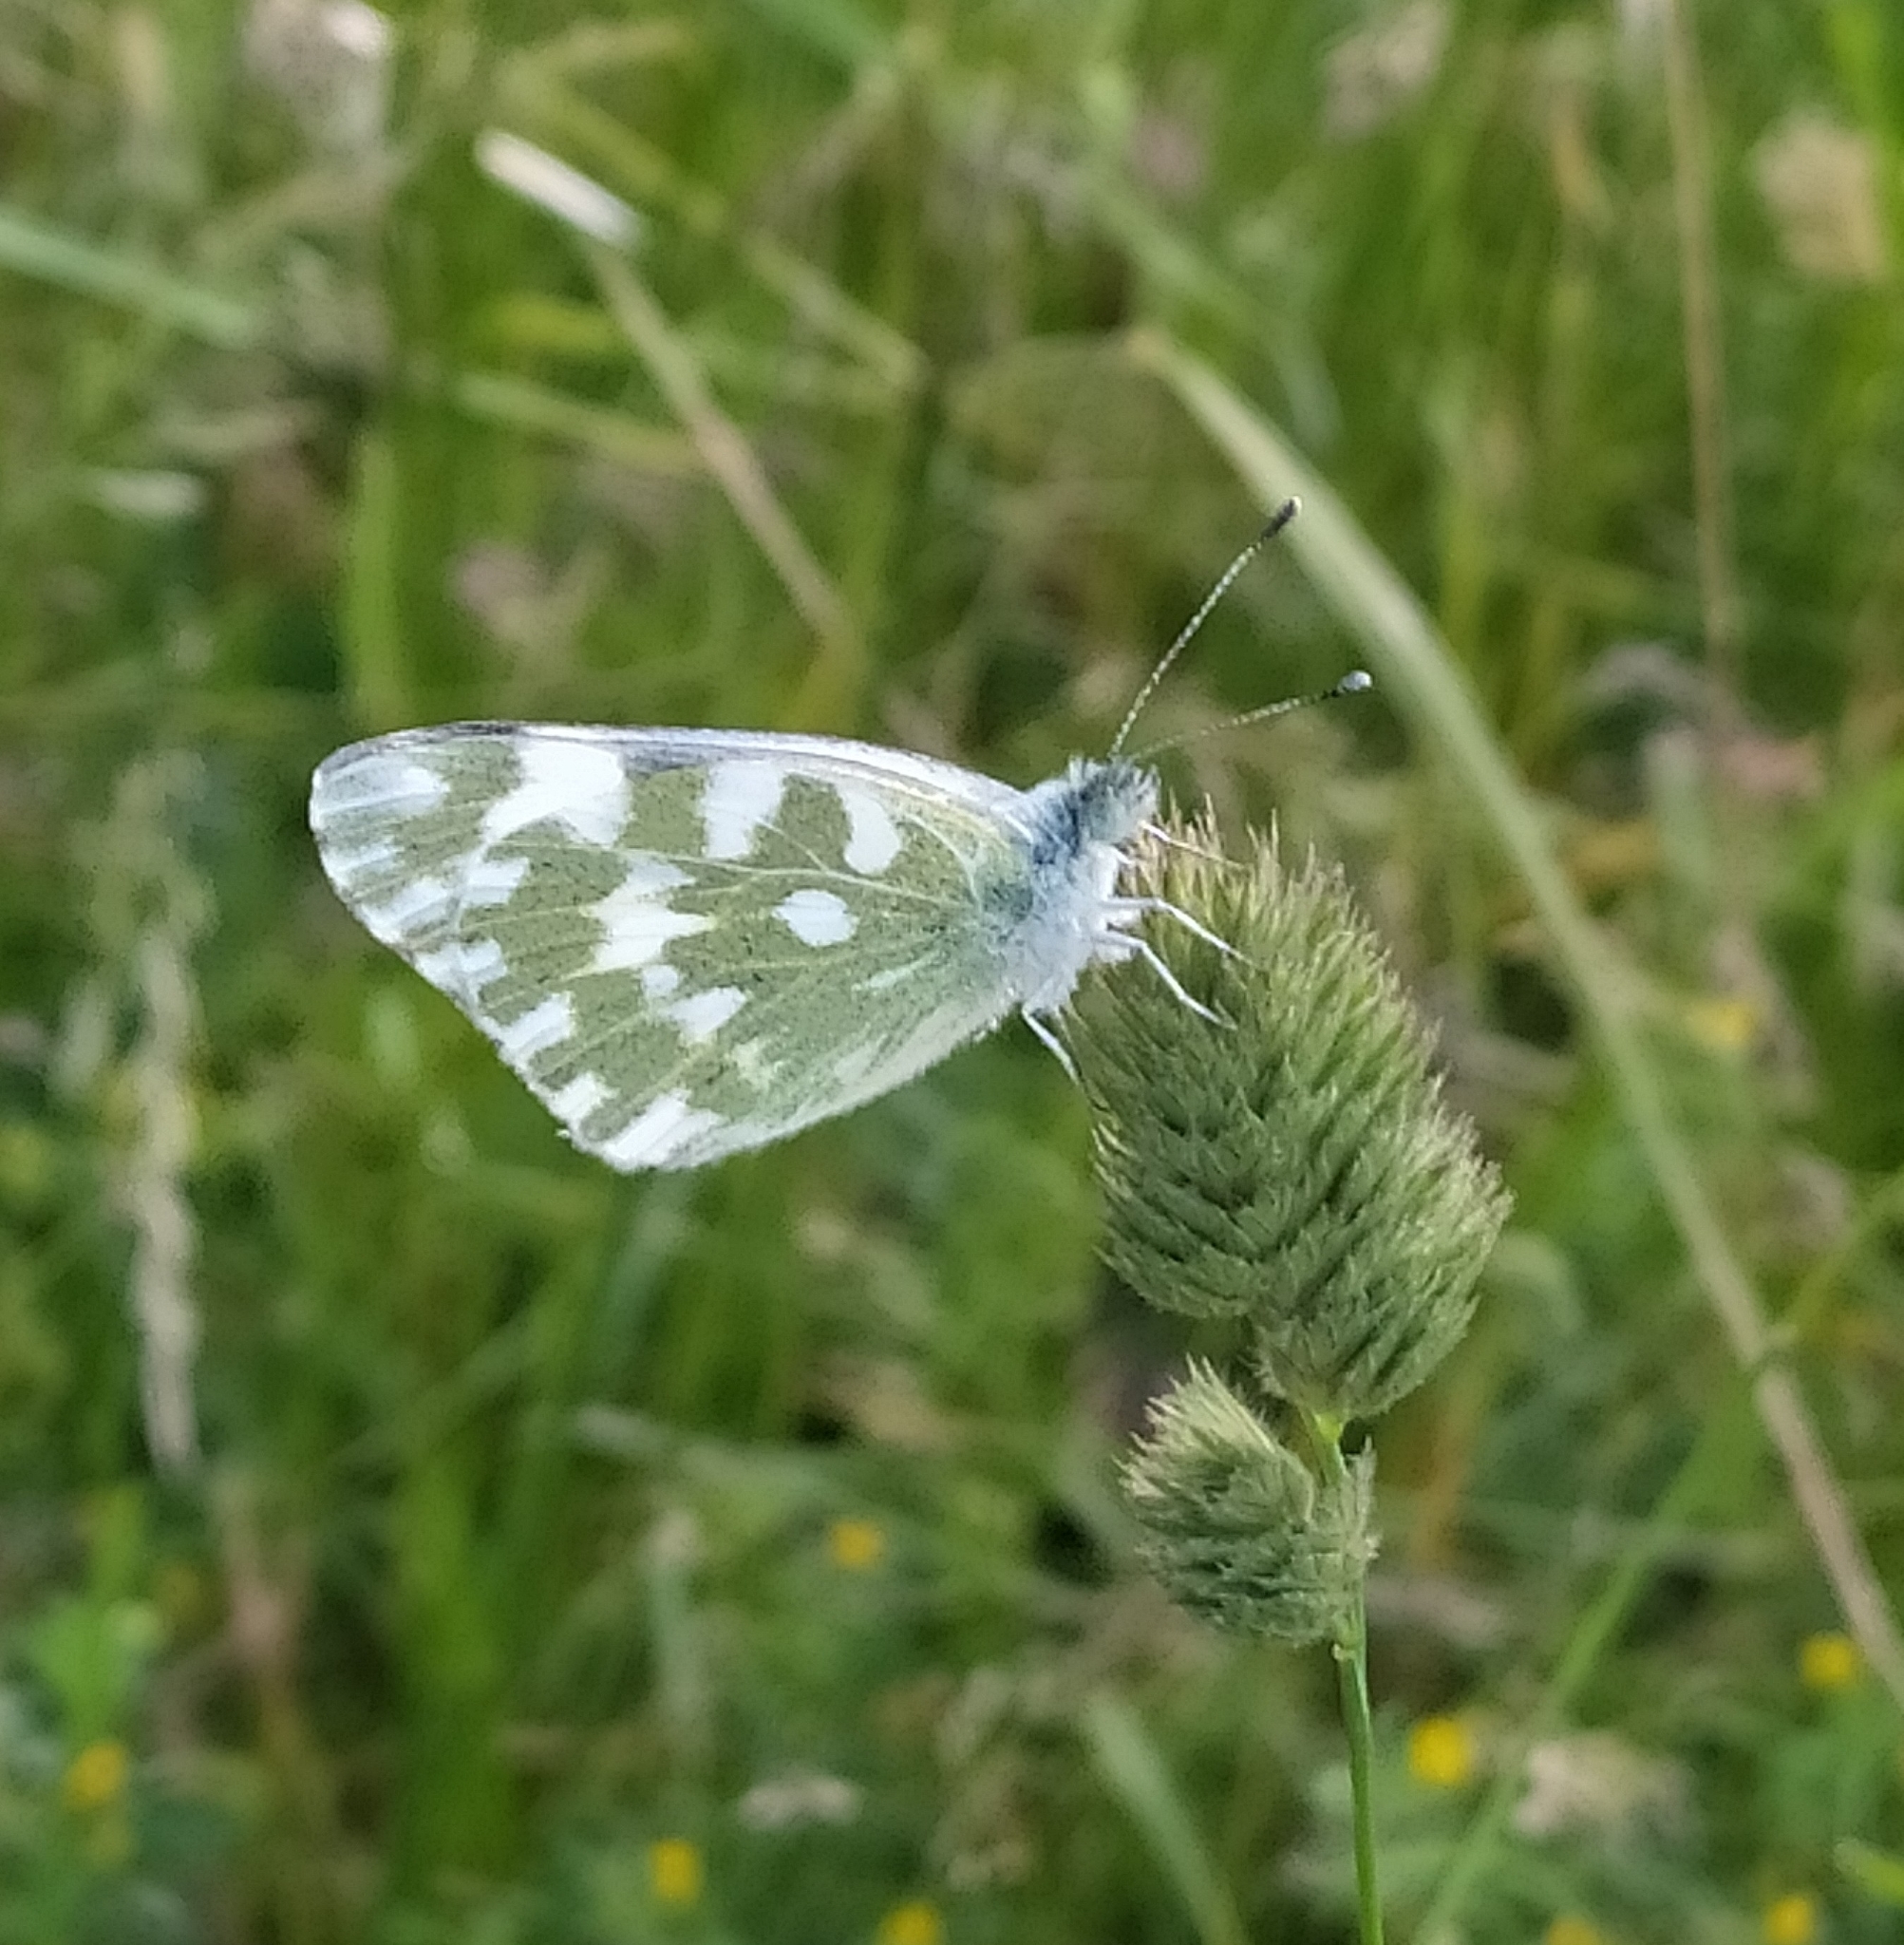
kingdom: Animalia
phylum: Arthropoda
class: Insecta
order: Lepidoptera
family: Pieridae
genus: Pontia
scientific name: Pontia edusa
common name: Eastern bath white
